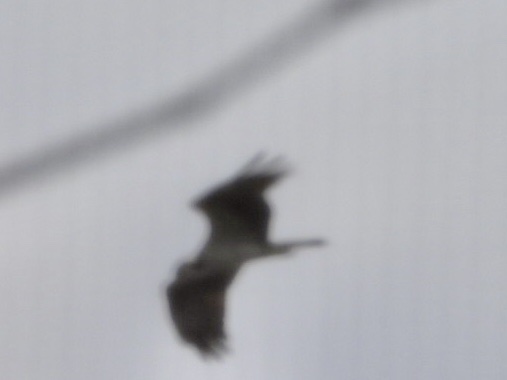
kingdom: Animalia
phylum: Chordata
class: Aves
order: Accipitriformes
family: Pandionidae
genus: Pandion
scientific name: Pandion haliaetus
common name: Osprey
